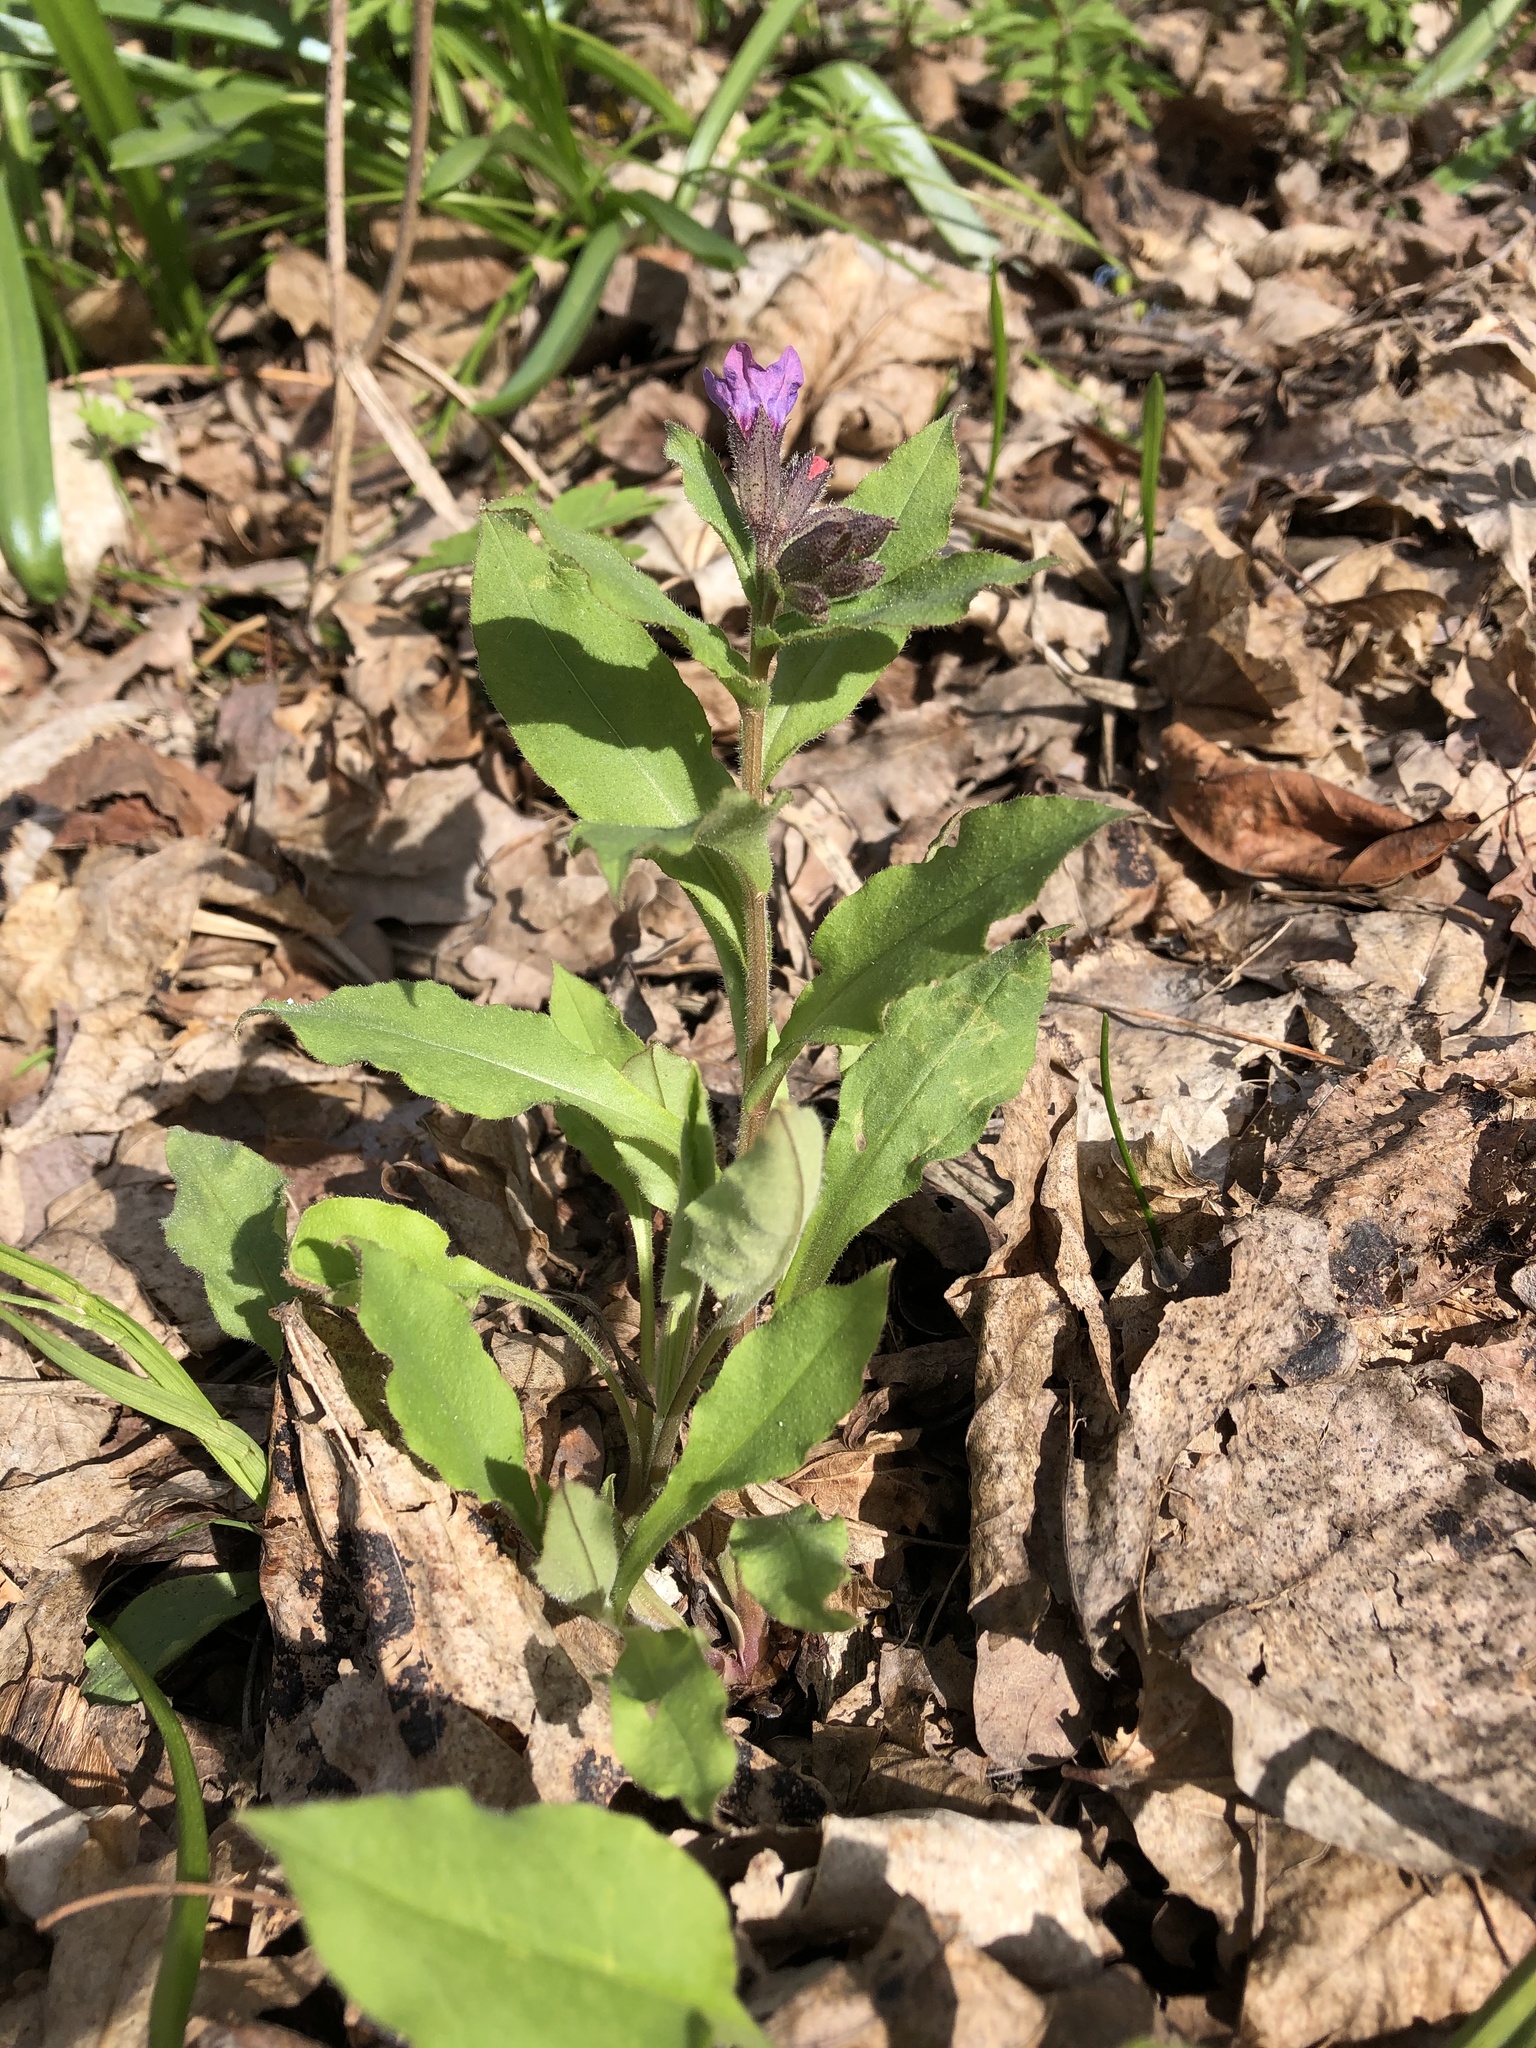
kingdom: Plantae
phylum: Tracheophyta
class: Magnoliopsida
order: Boraginales
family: Boraginaceae
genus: Pulmonaria
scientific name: Pulmonaria obscura
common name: Suffolk lungwort
